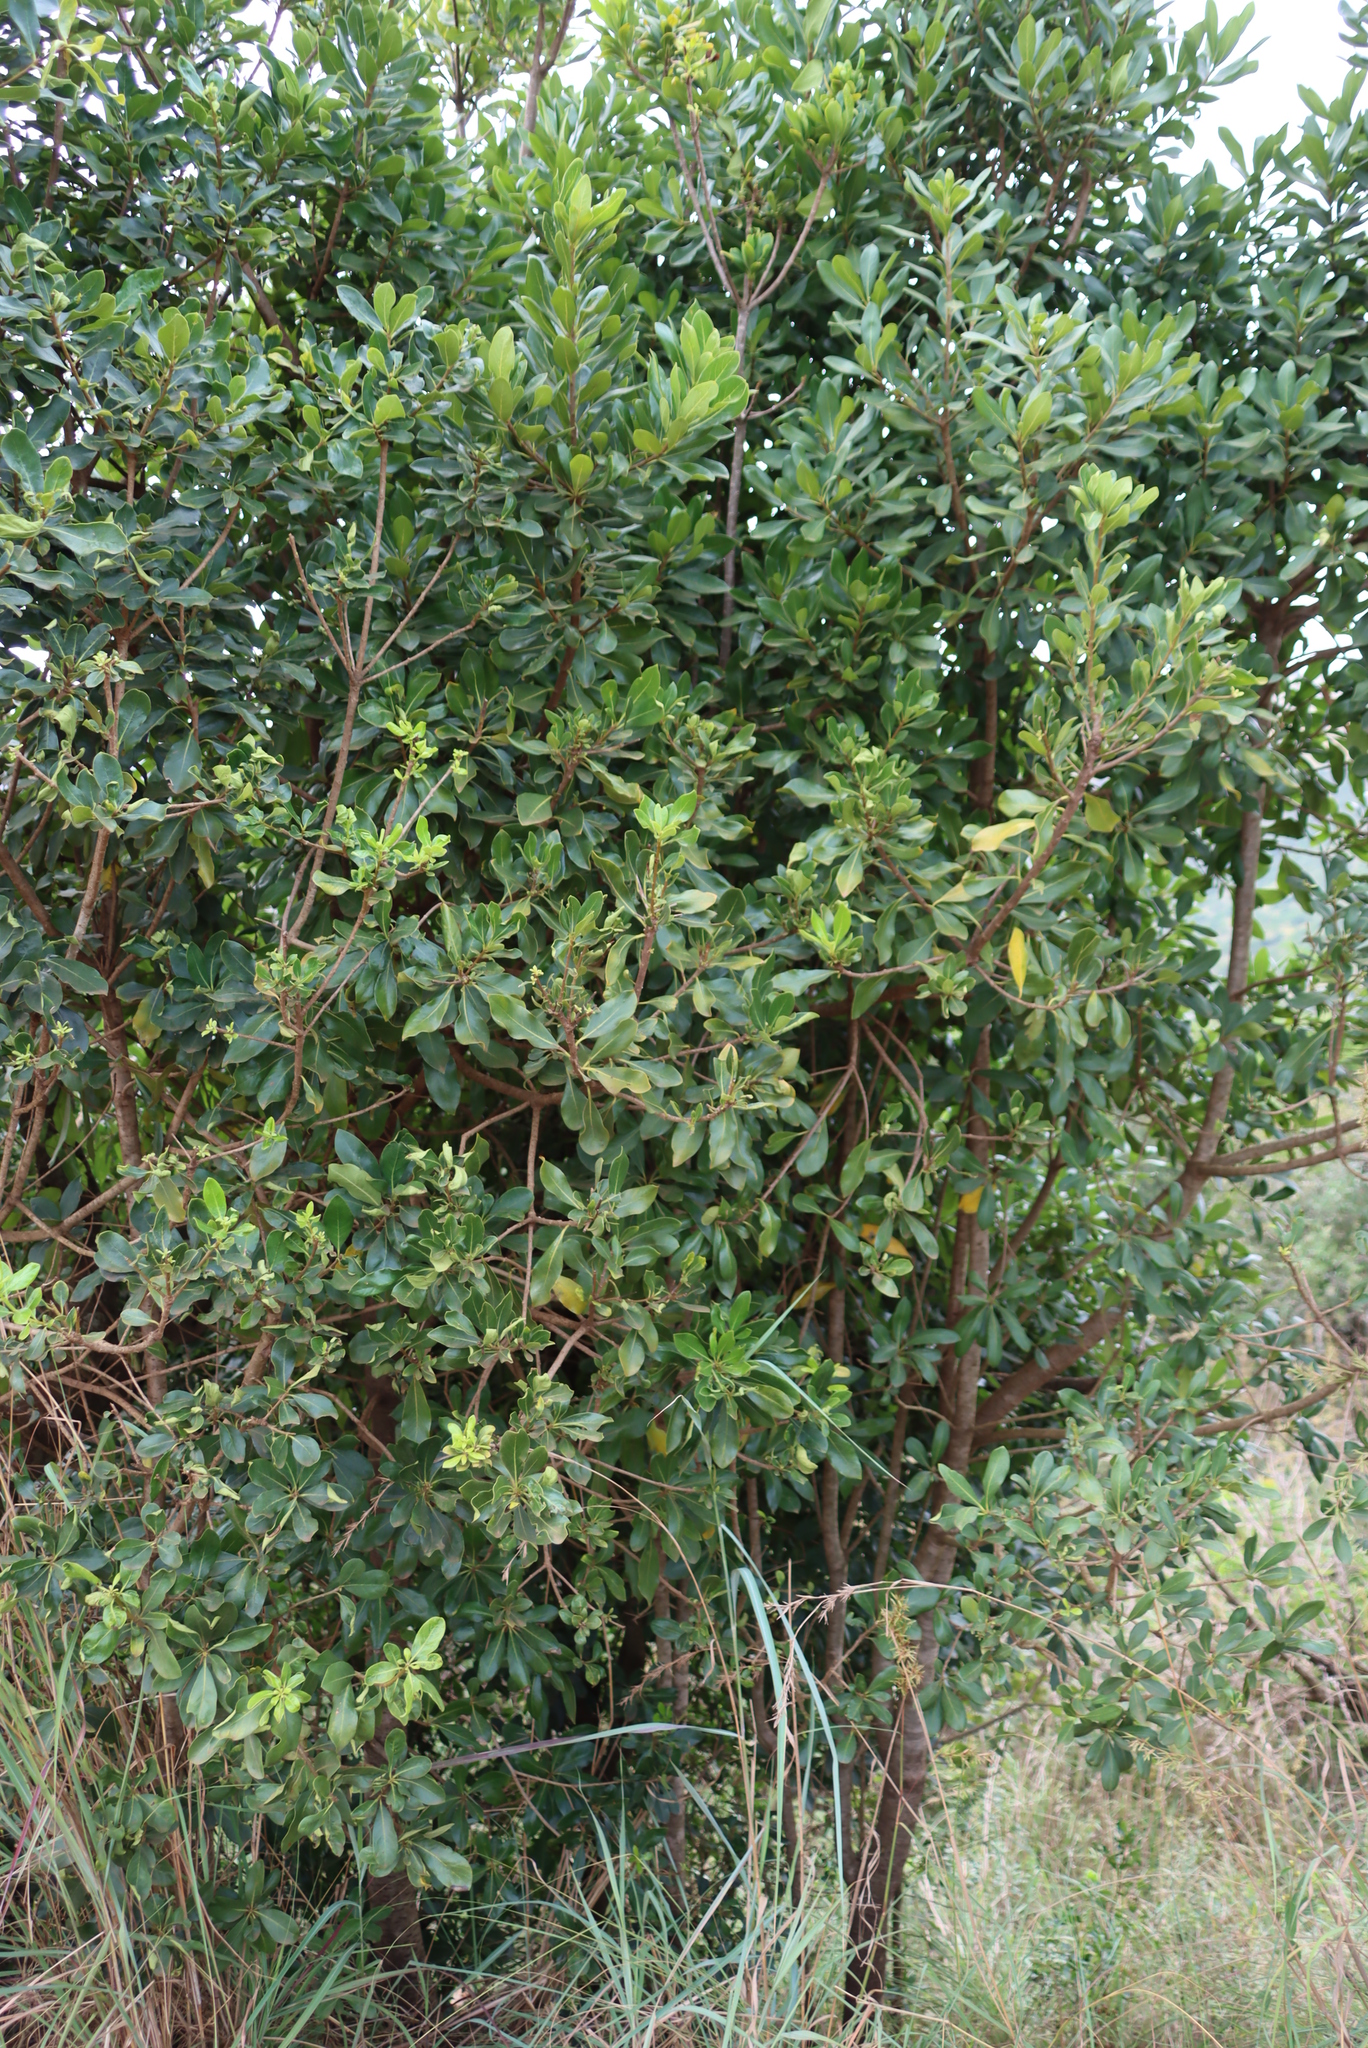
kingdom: Plantae
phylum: Tracheophyta
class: Magnoliopsida
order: Apiales
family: Pittosporaceae
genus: Pittosporum
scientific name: Pittosporum viridiflorum
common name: Cape cheesewood
